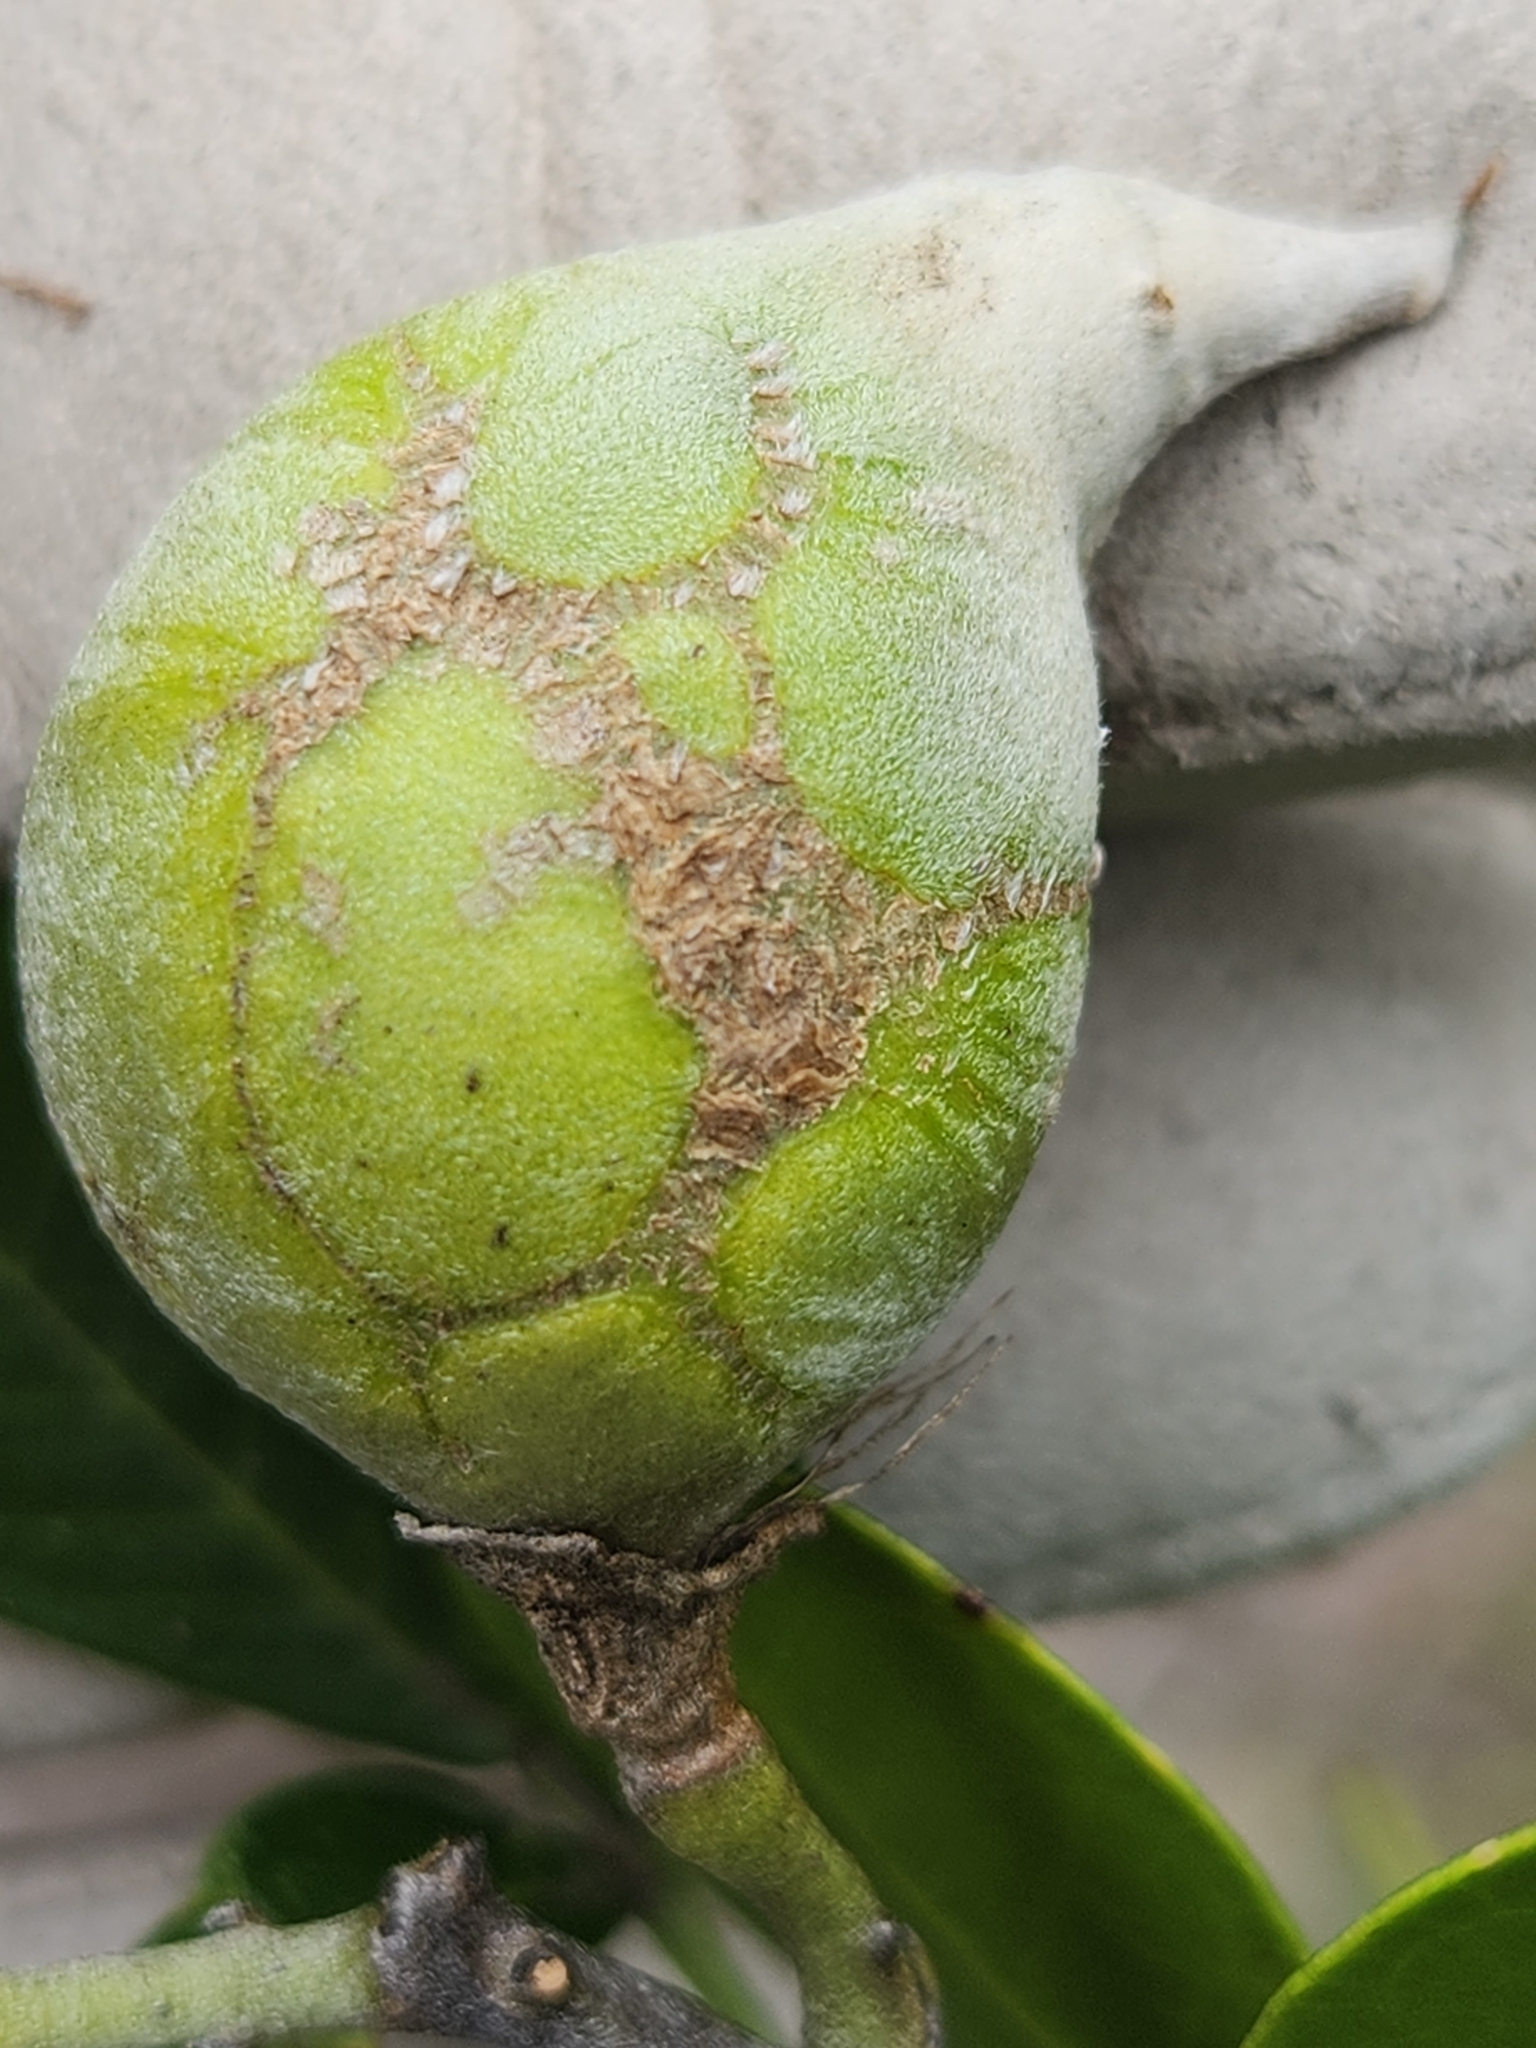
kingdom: Plantae
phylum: Tracheophyta
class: Magnoliopsida
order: Fabales
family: Fabaceae
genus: Dermatophyllum
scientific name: Dermatophyllum secundiflorum
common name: Texas-mountain-laurel
